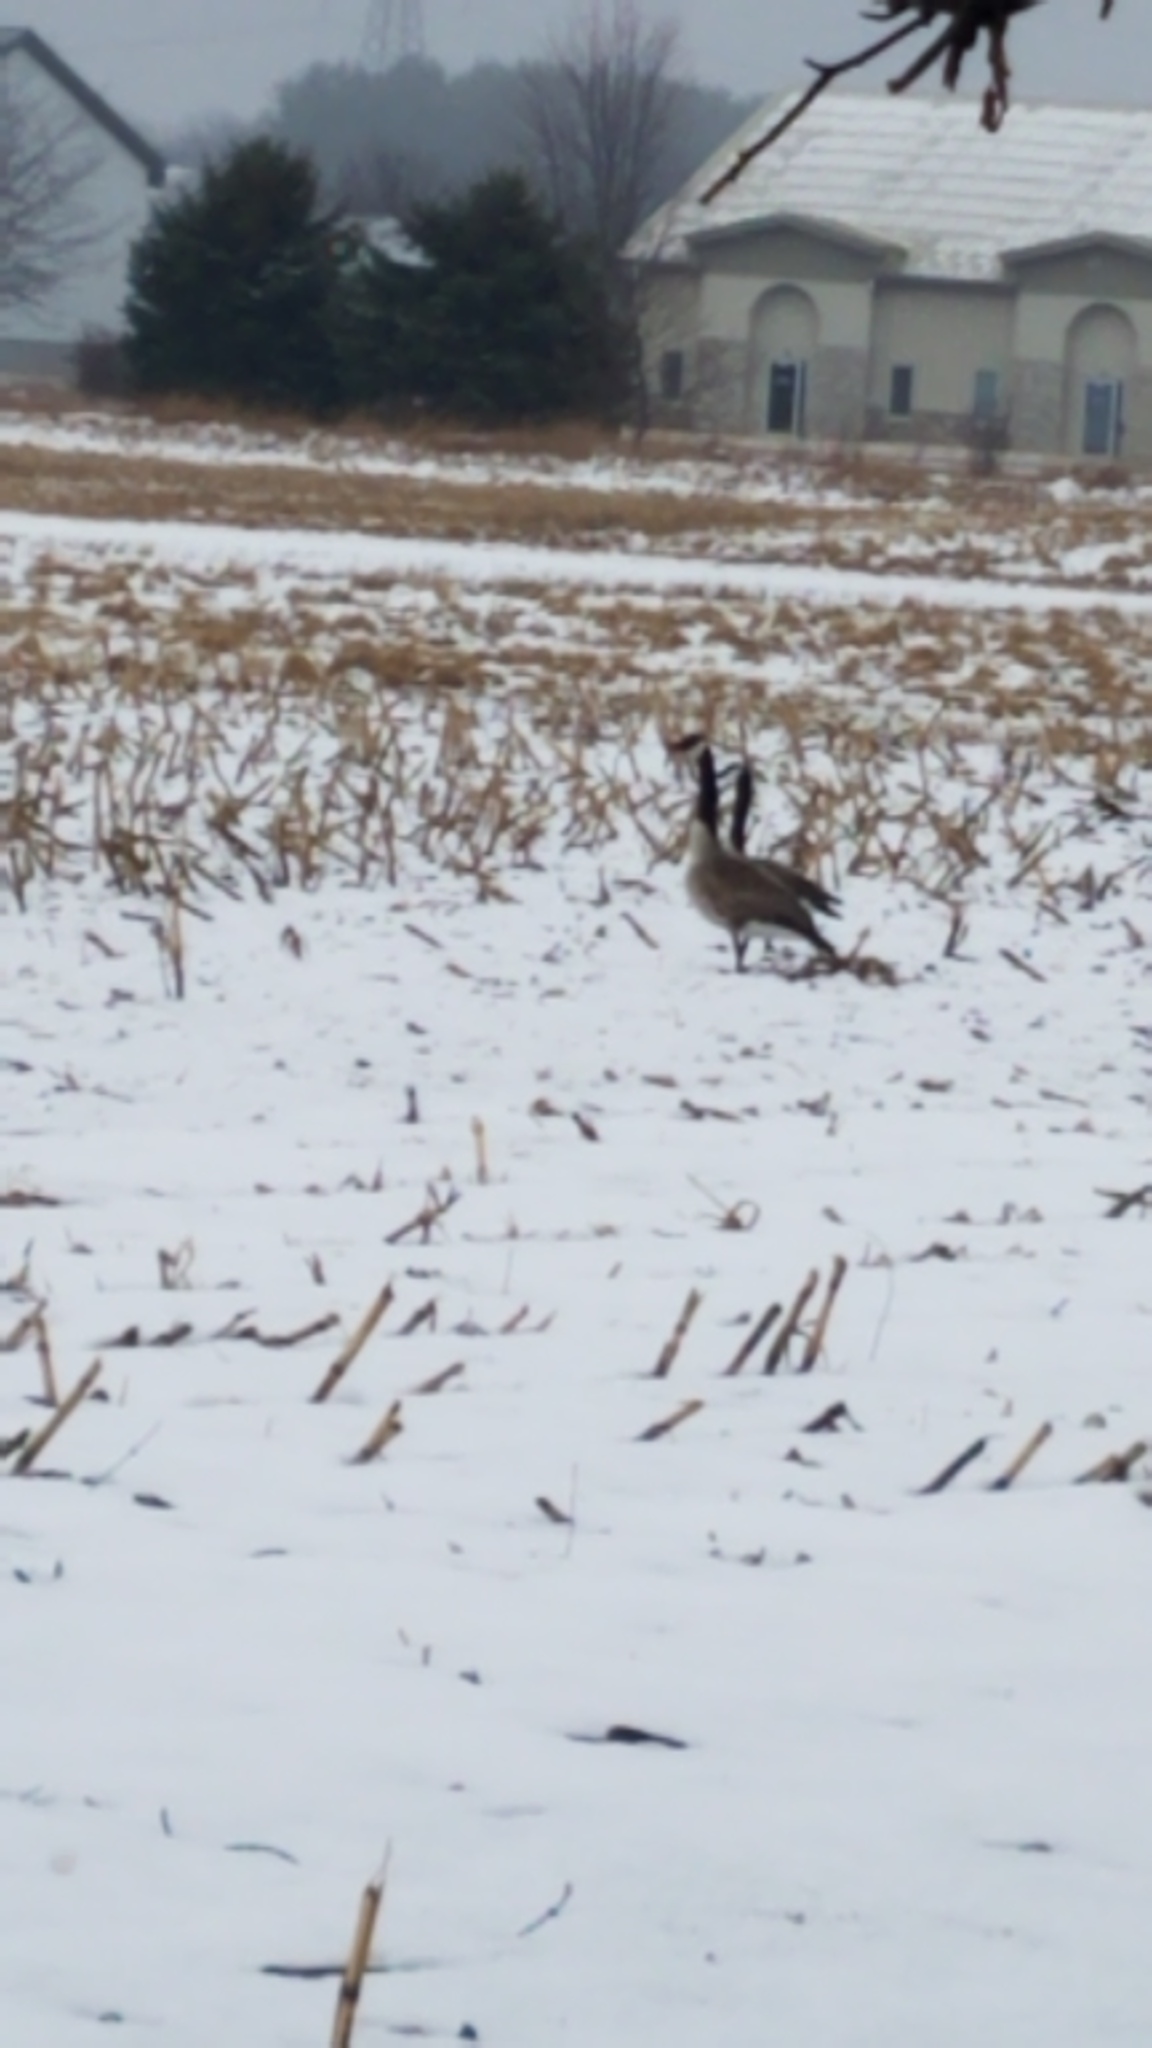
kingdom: Animalia
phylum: Chordata
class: Aves
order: Anseriformes
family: Anatidae
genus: Branta
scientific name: Branta canadensis
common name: Canada goose
